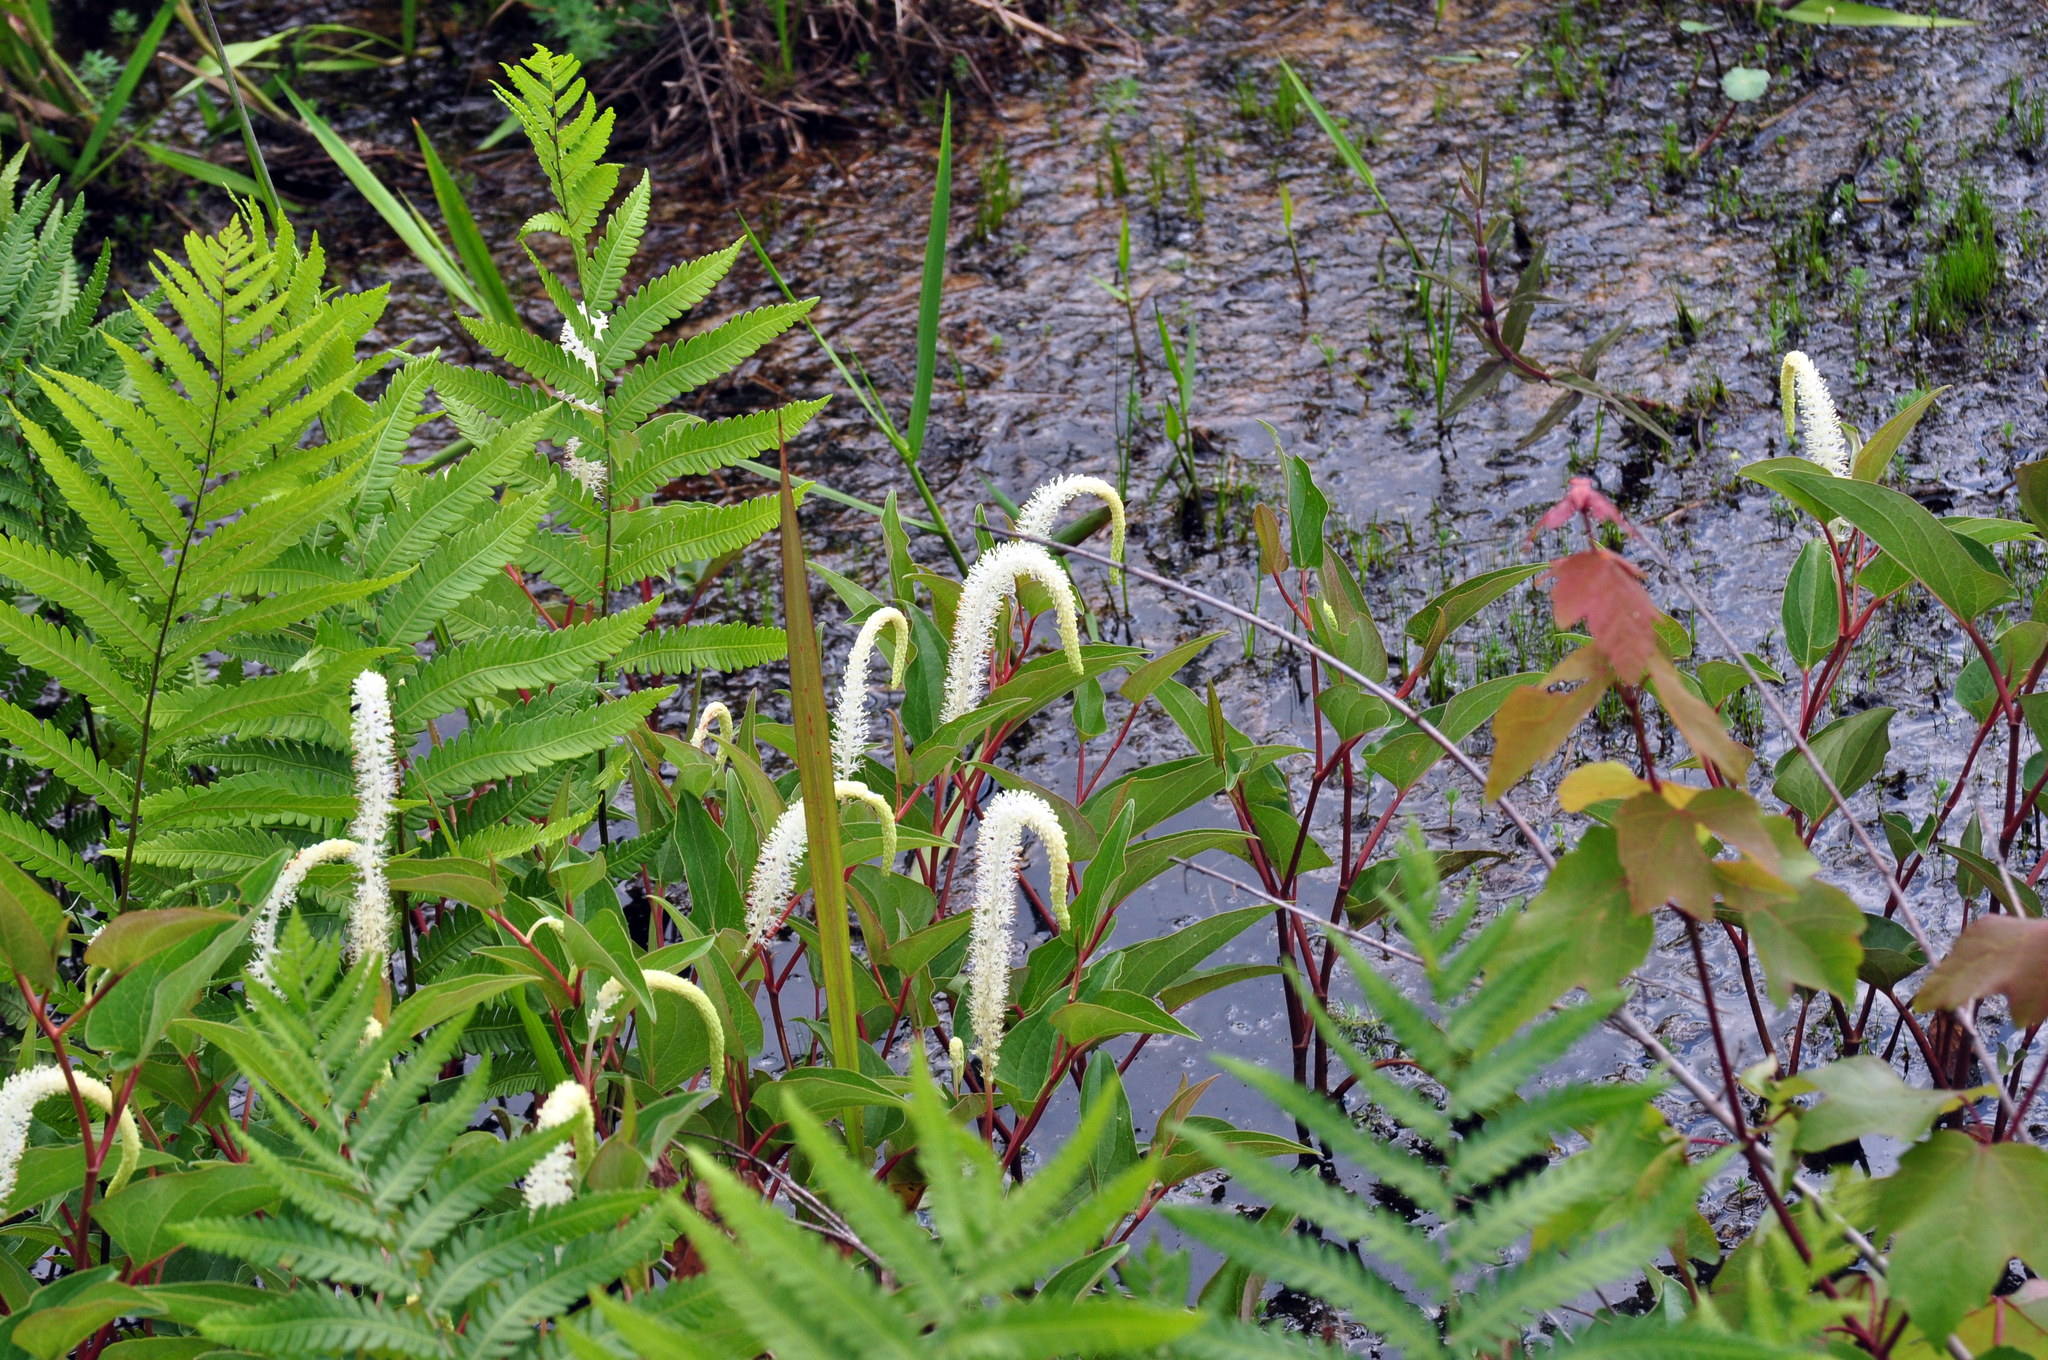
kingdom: Plantae
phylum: Tracheophyta
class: Magnoliopsida
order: Piperales
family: Saururaceae
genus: Saururus
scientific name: Saururus cernuus
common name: Lizard's-tail
